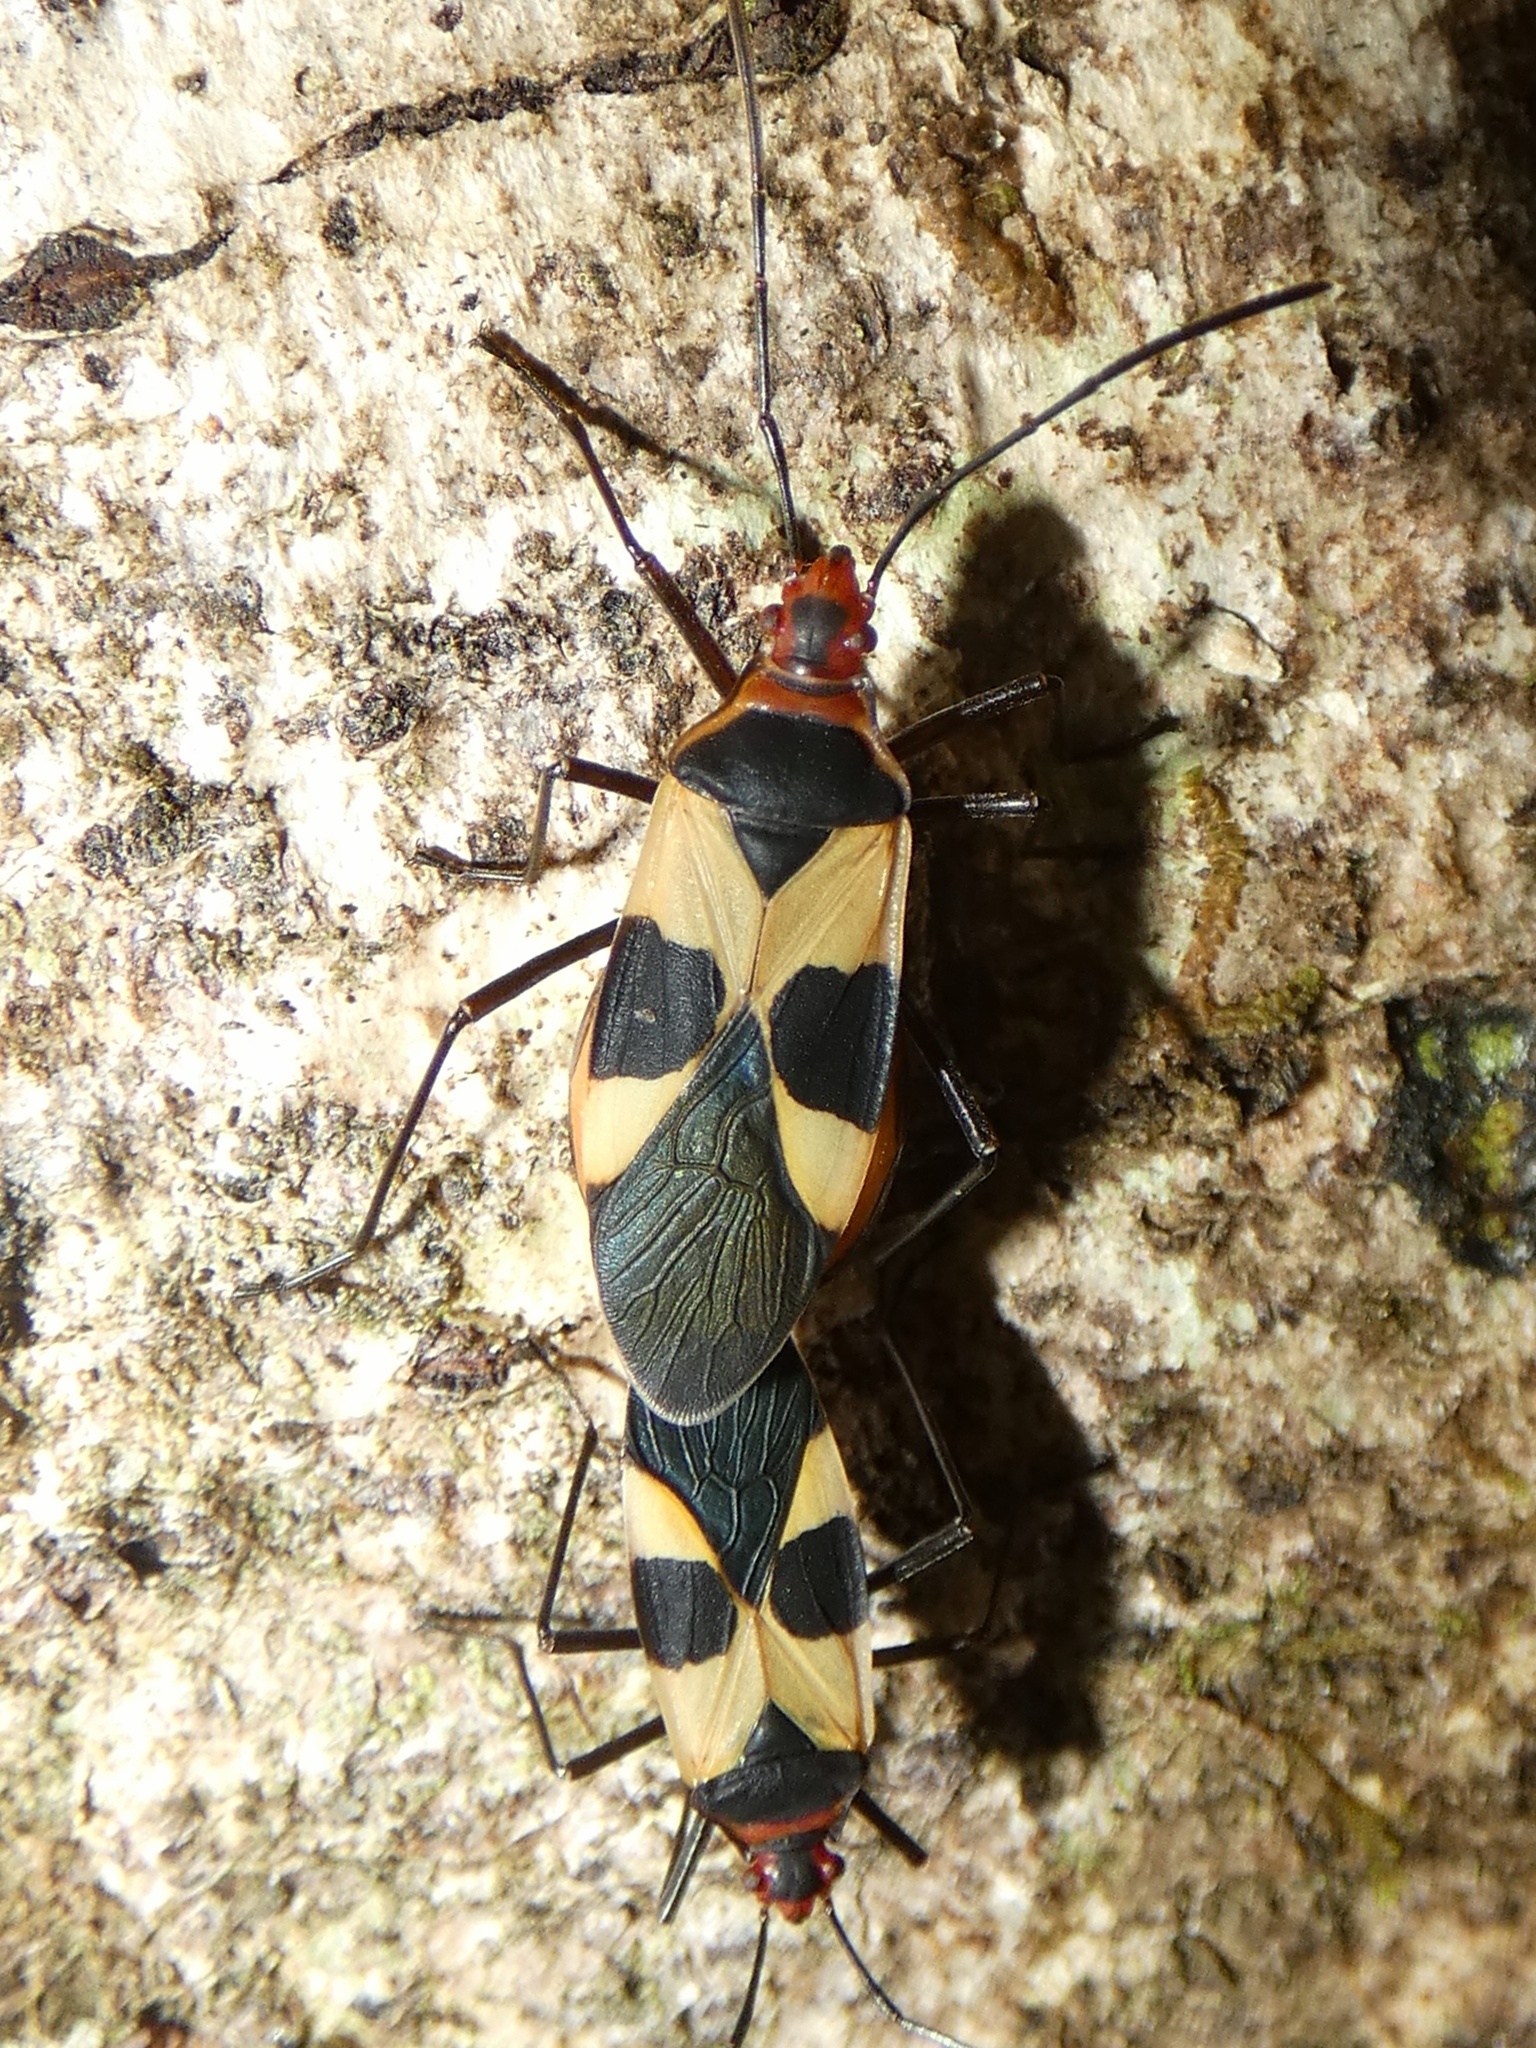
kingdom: Animalia
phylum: Arthropoda
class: Insecta
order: Hemiptera
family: Pyrrhocoridae
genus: Dysdercus
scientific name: Dysdercus lunulatus
